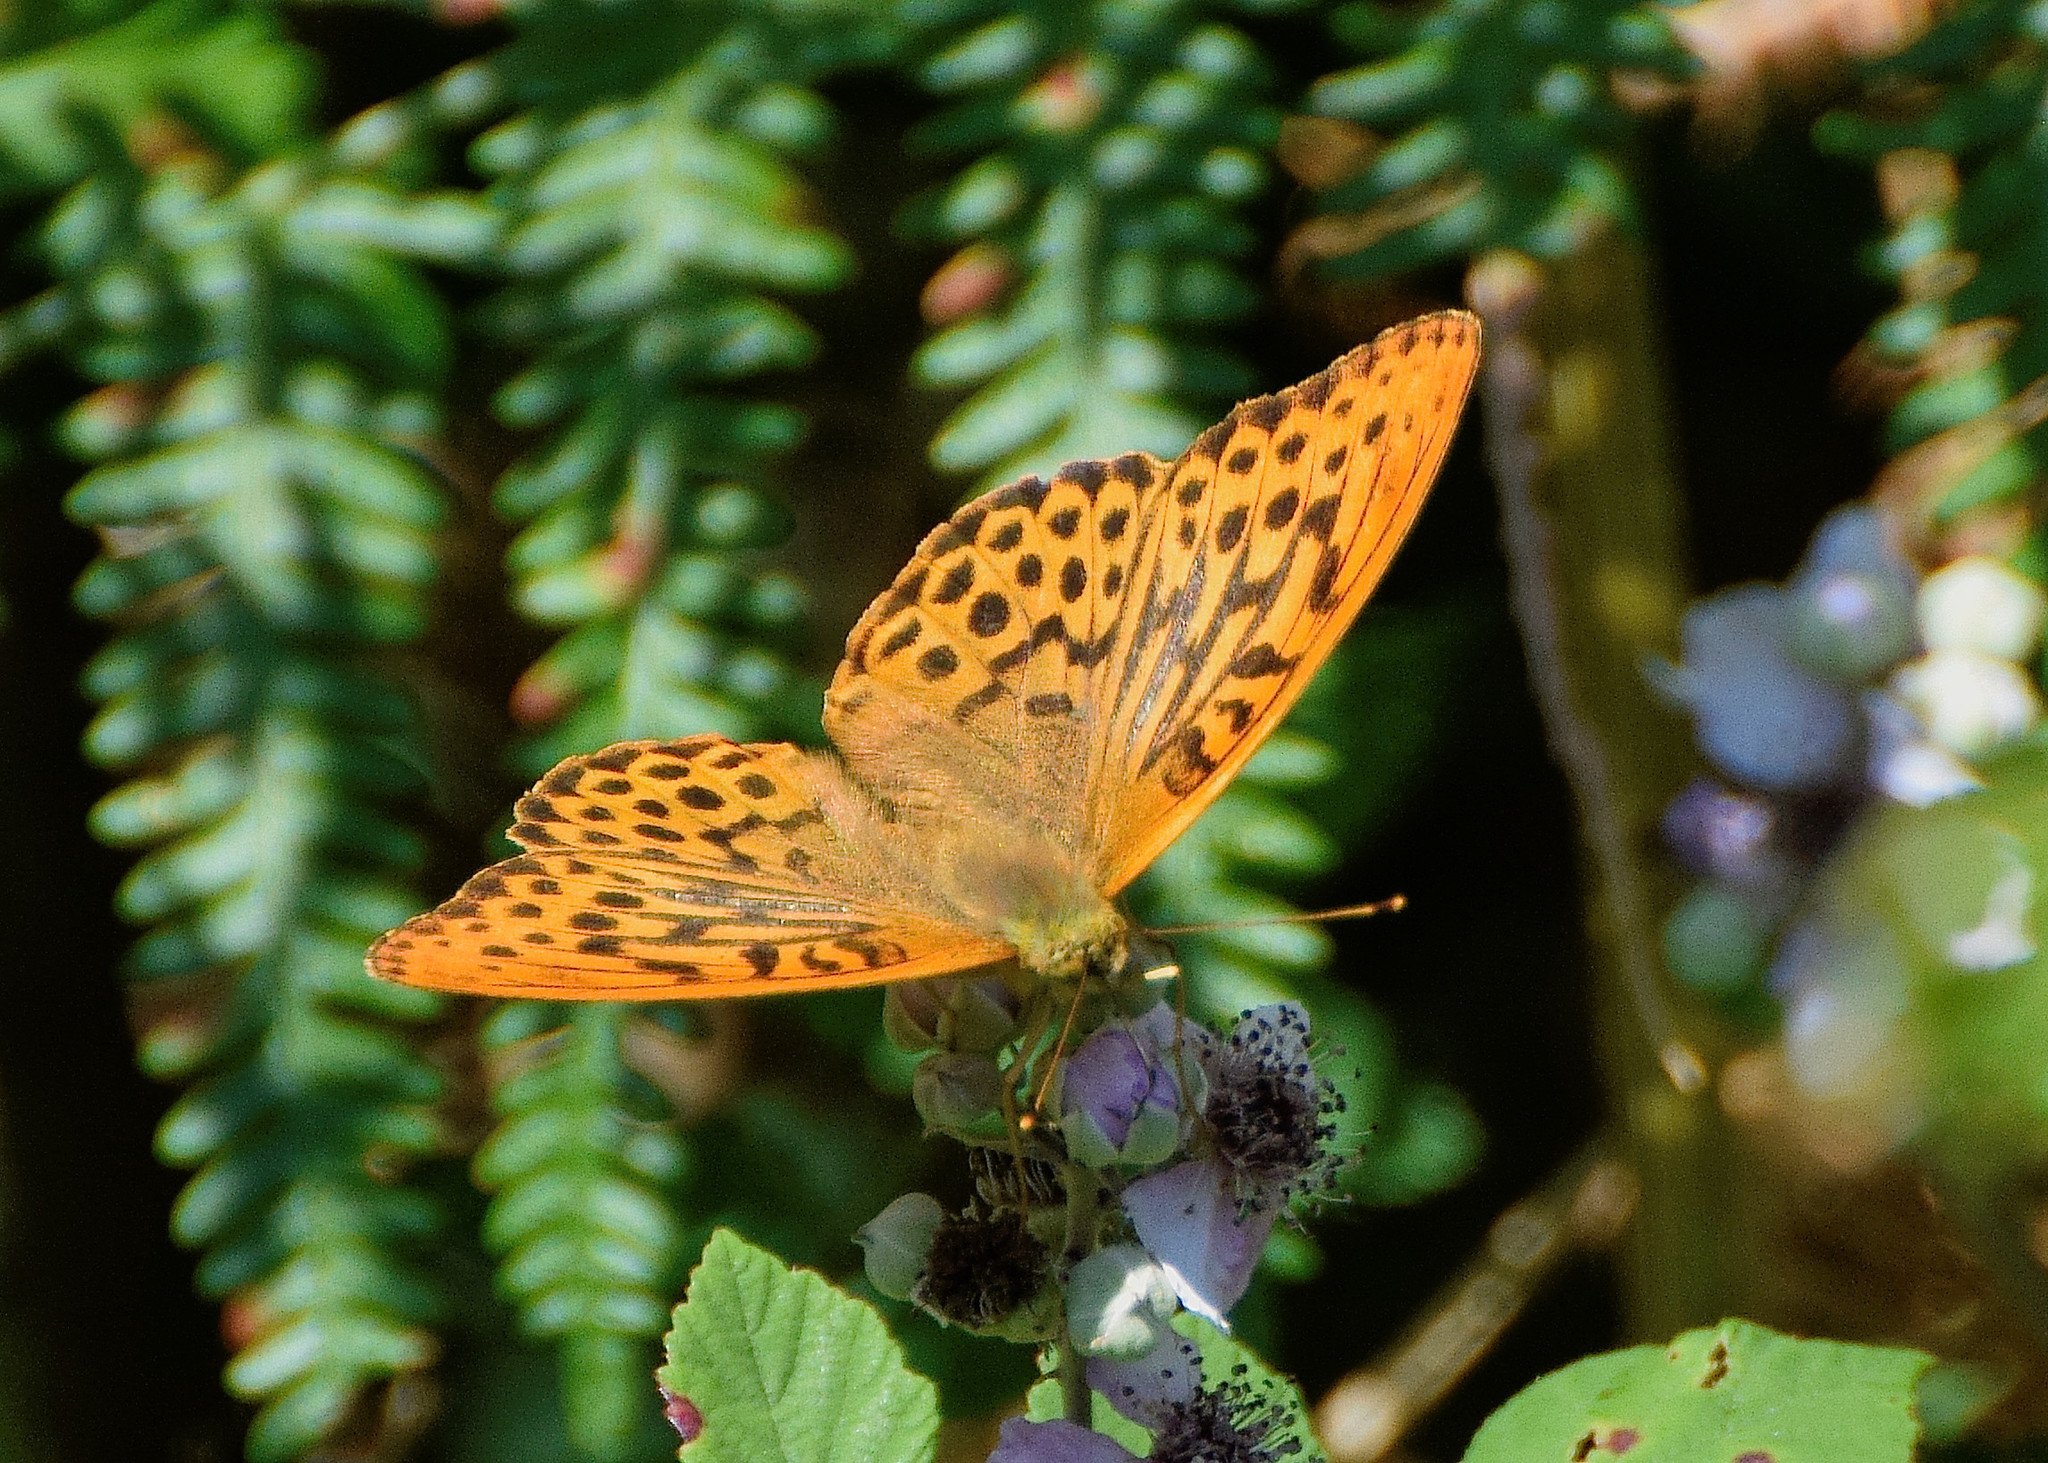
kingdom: Animalia
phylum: Arthropoda
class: Insecta
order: Lepidoptera
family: Nymphalidae
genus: Argynnis
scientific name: Argynnis paphia
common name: Silver-washed fritillary
